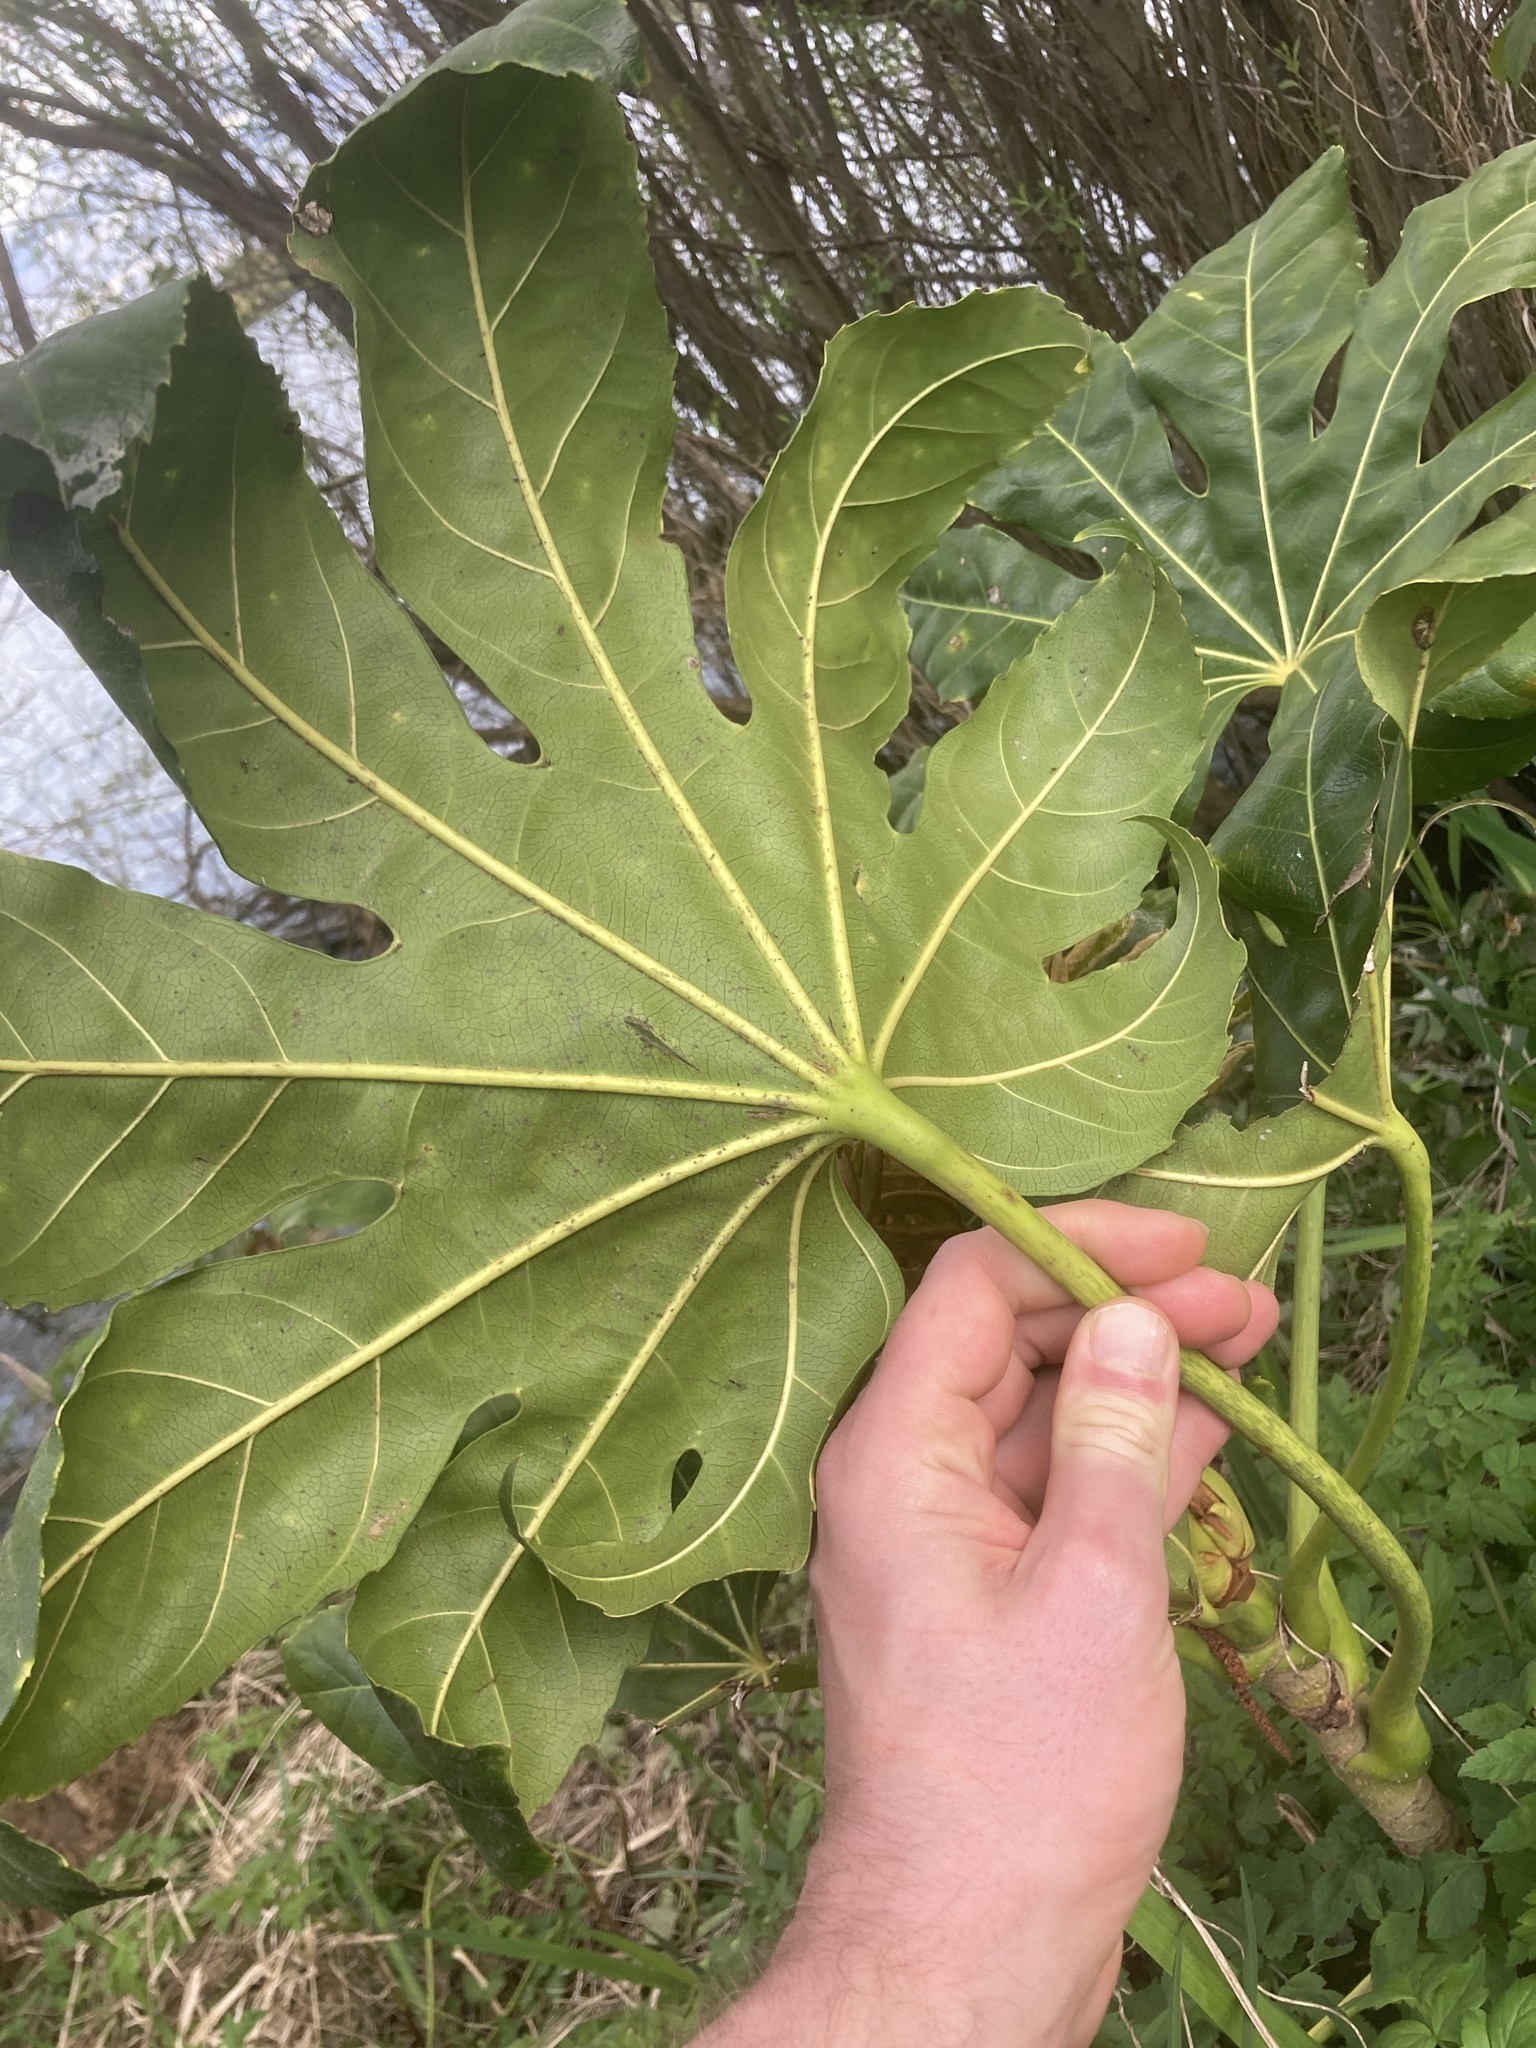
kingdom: Plantae
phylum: Tracheophyta
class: Magnoliopsida
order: Apiales
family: Araliaceae
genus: Fatsia
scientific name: Fatsia japonica
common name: Fatsia
